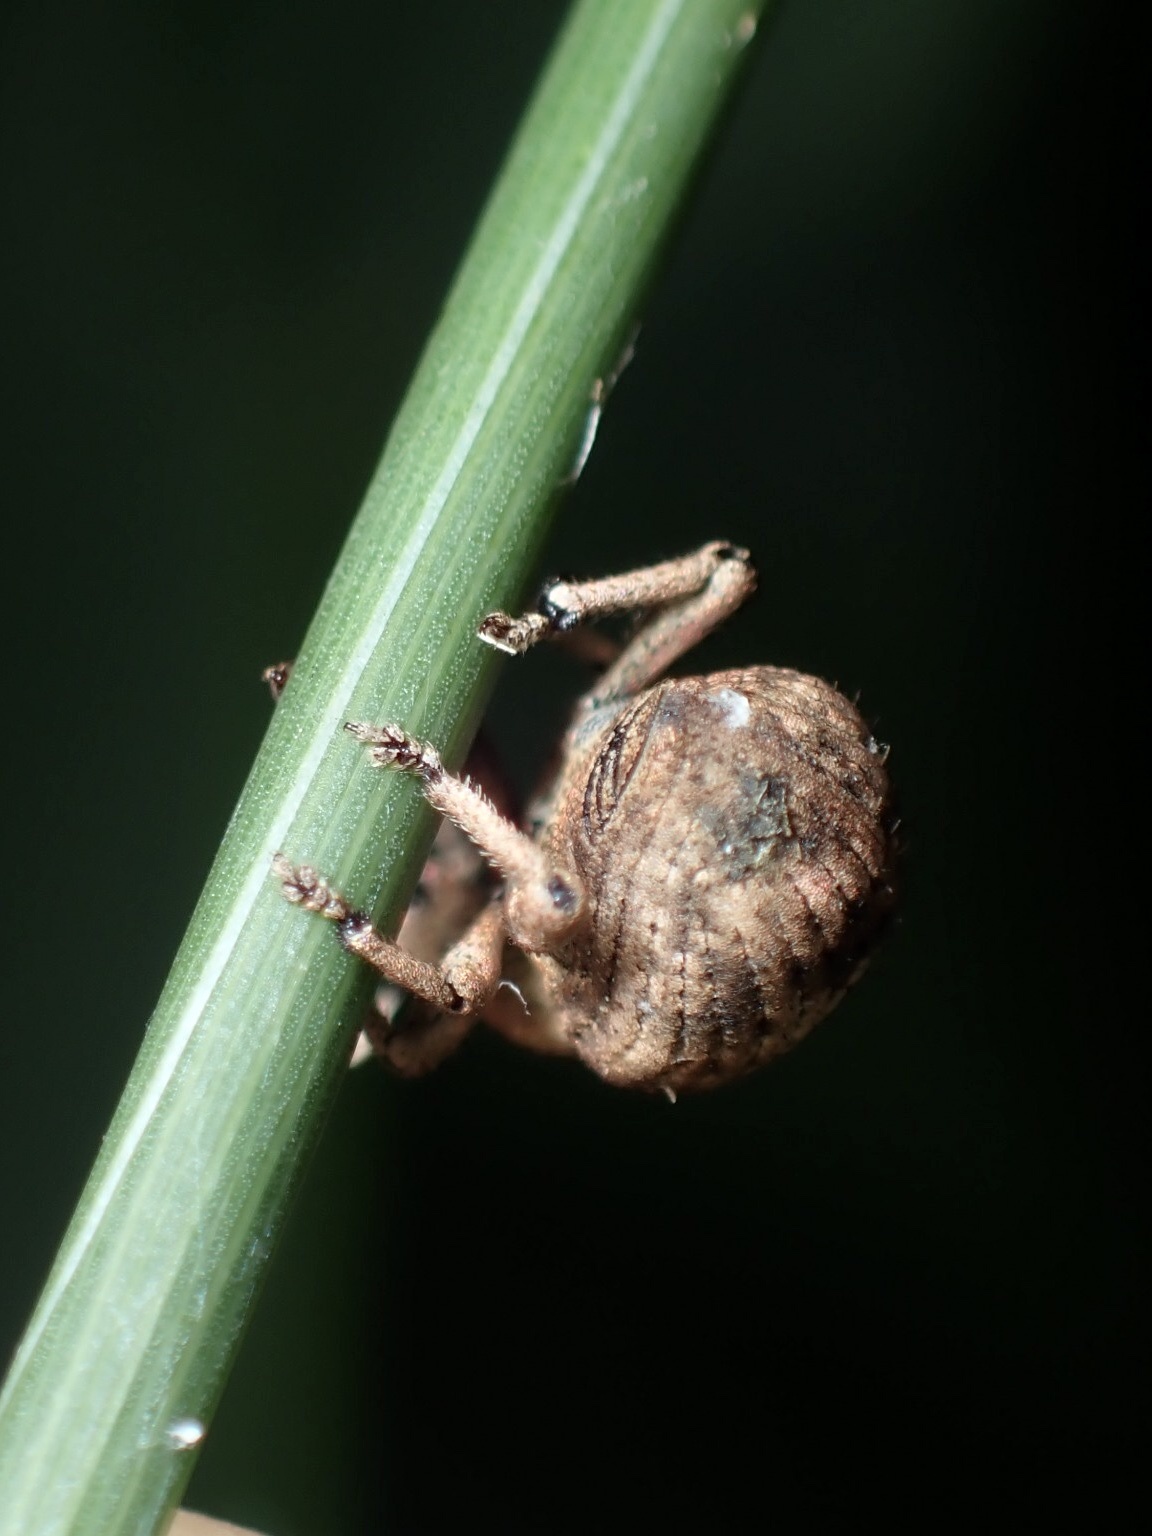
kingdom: Animalia
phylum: Arthropoda
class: Insecta
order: Coleoptera
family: Curculionidae
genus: Pseudocneorhinus
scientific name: Pseudocneorhinus bifasciatus
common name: Two-banded japanese weevil
